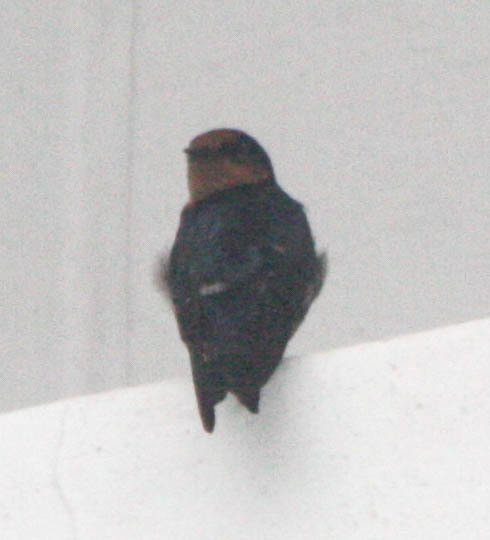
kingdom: Animalia
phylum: Chordata
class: Aves
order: Passeriformes
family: Hirundinidae
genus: Hirundo
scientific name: Hirundo
